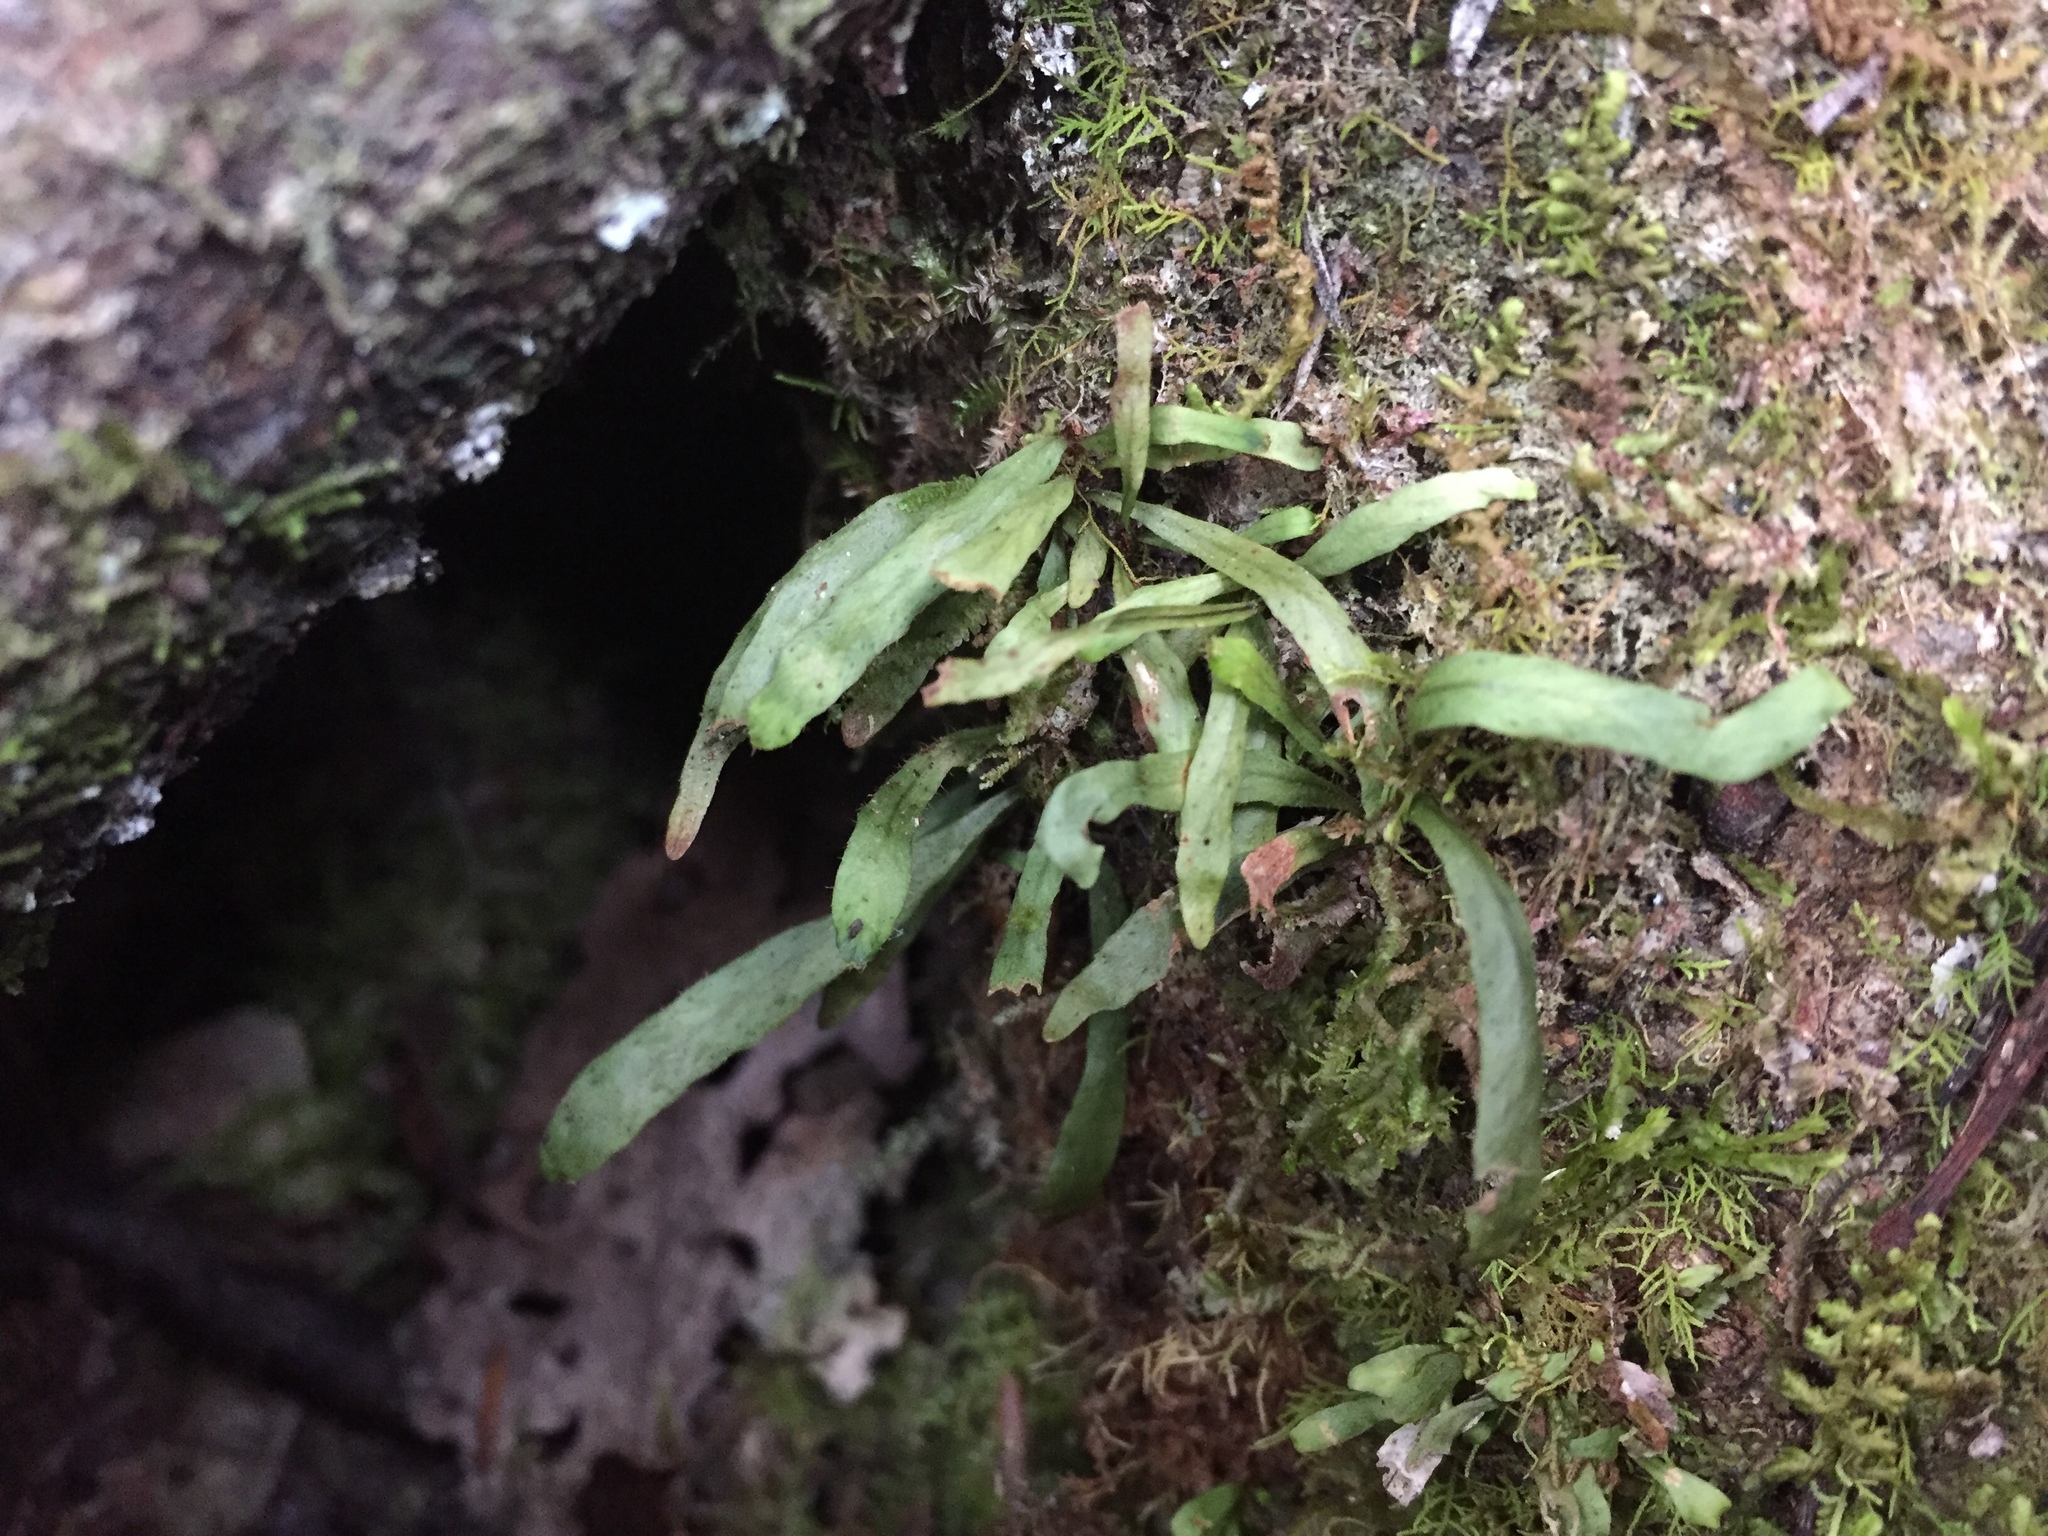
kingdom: Plantae
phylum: Tracheophyta
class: Polypodiopsida
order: Polypodiales
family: Polypodiaceae
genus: Notogrammitis
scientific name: Notogrammitis ciliata
